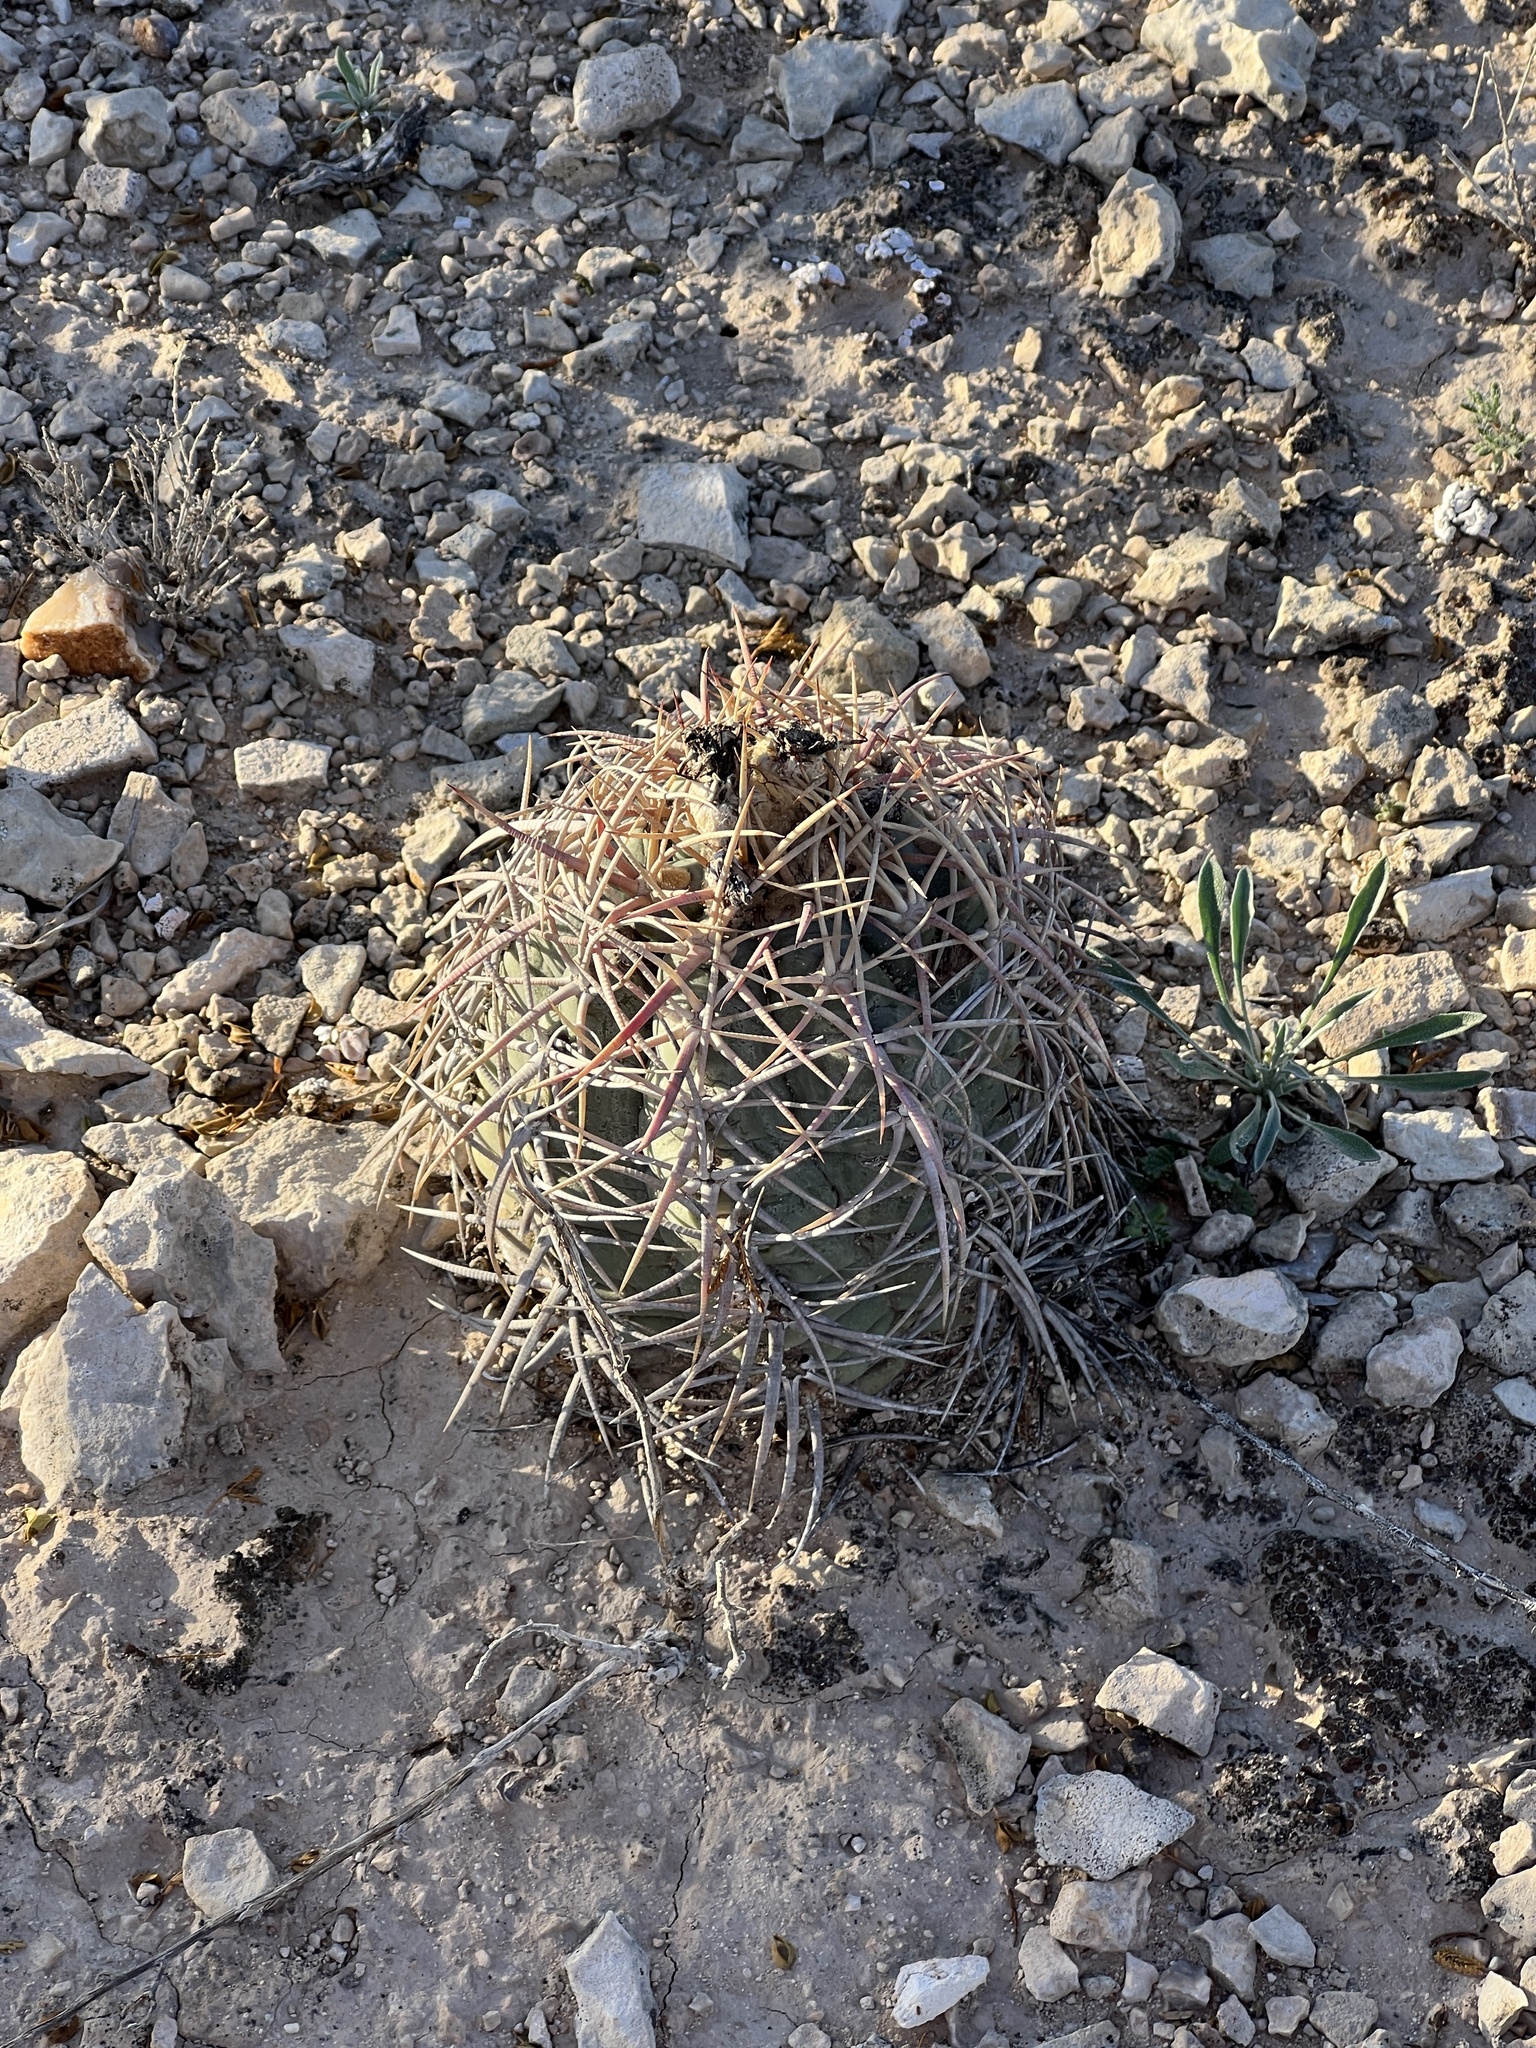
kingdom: Plantae
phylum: Tracheophyta
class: Magnoliopsida
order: Caryophyllales
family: Cactaceae
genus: Echinocactus
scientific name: Echinocactus horizonthalonius
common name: Devilshead
